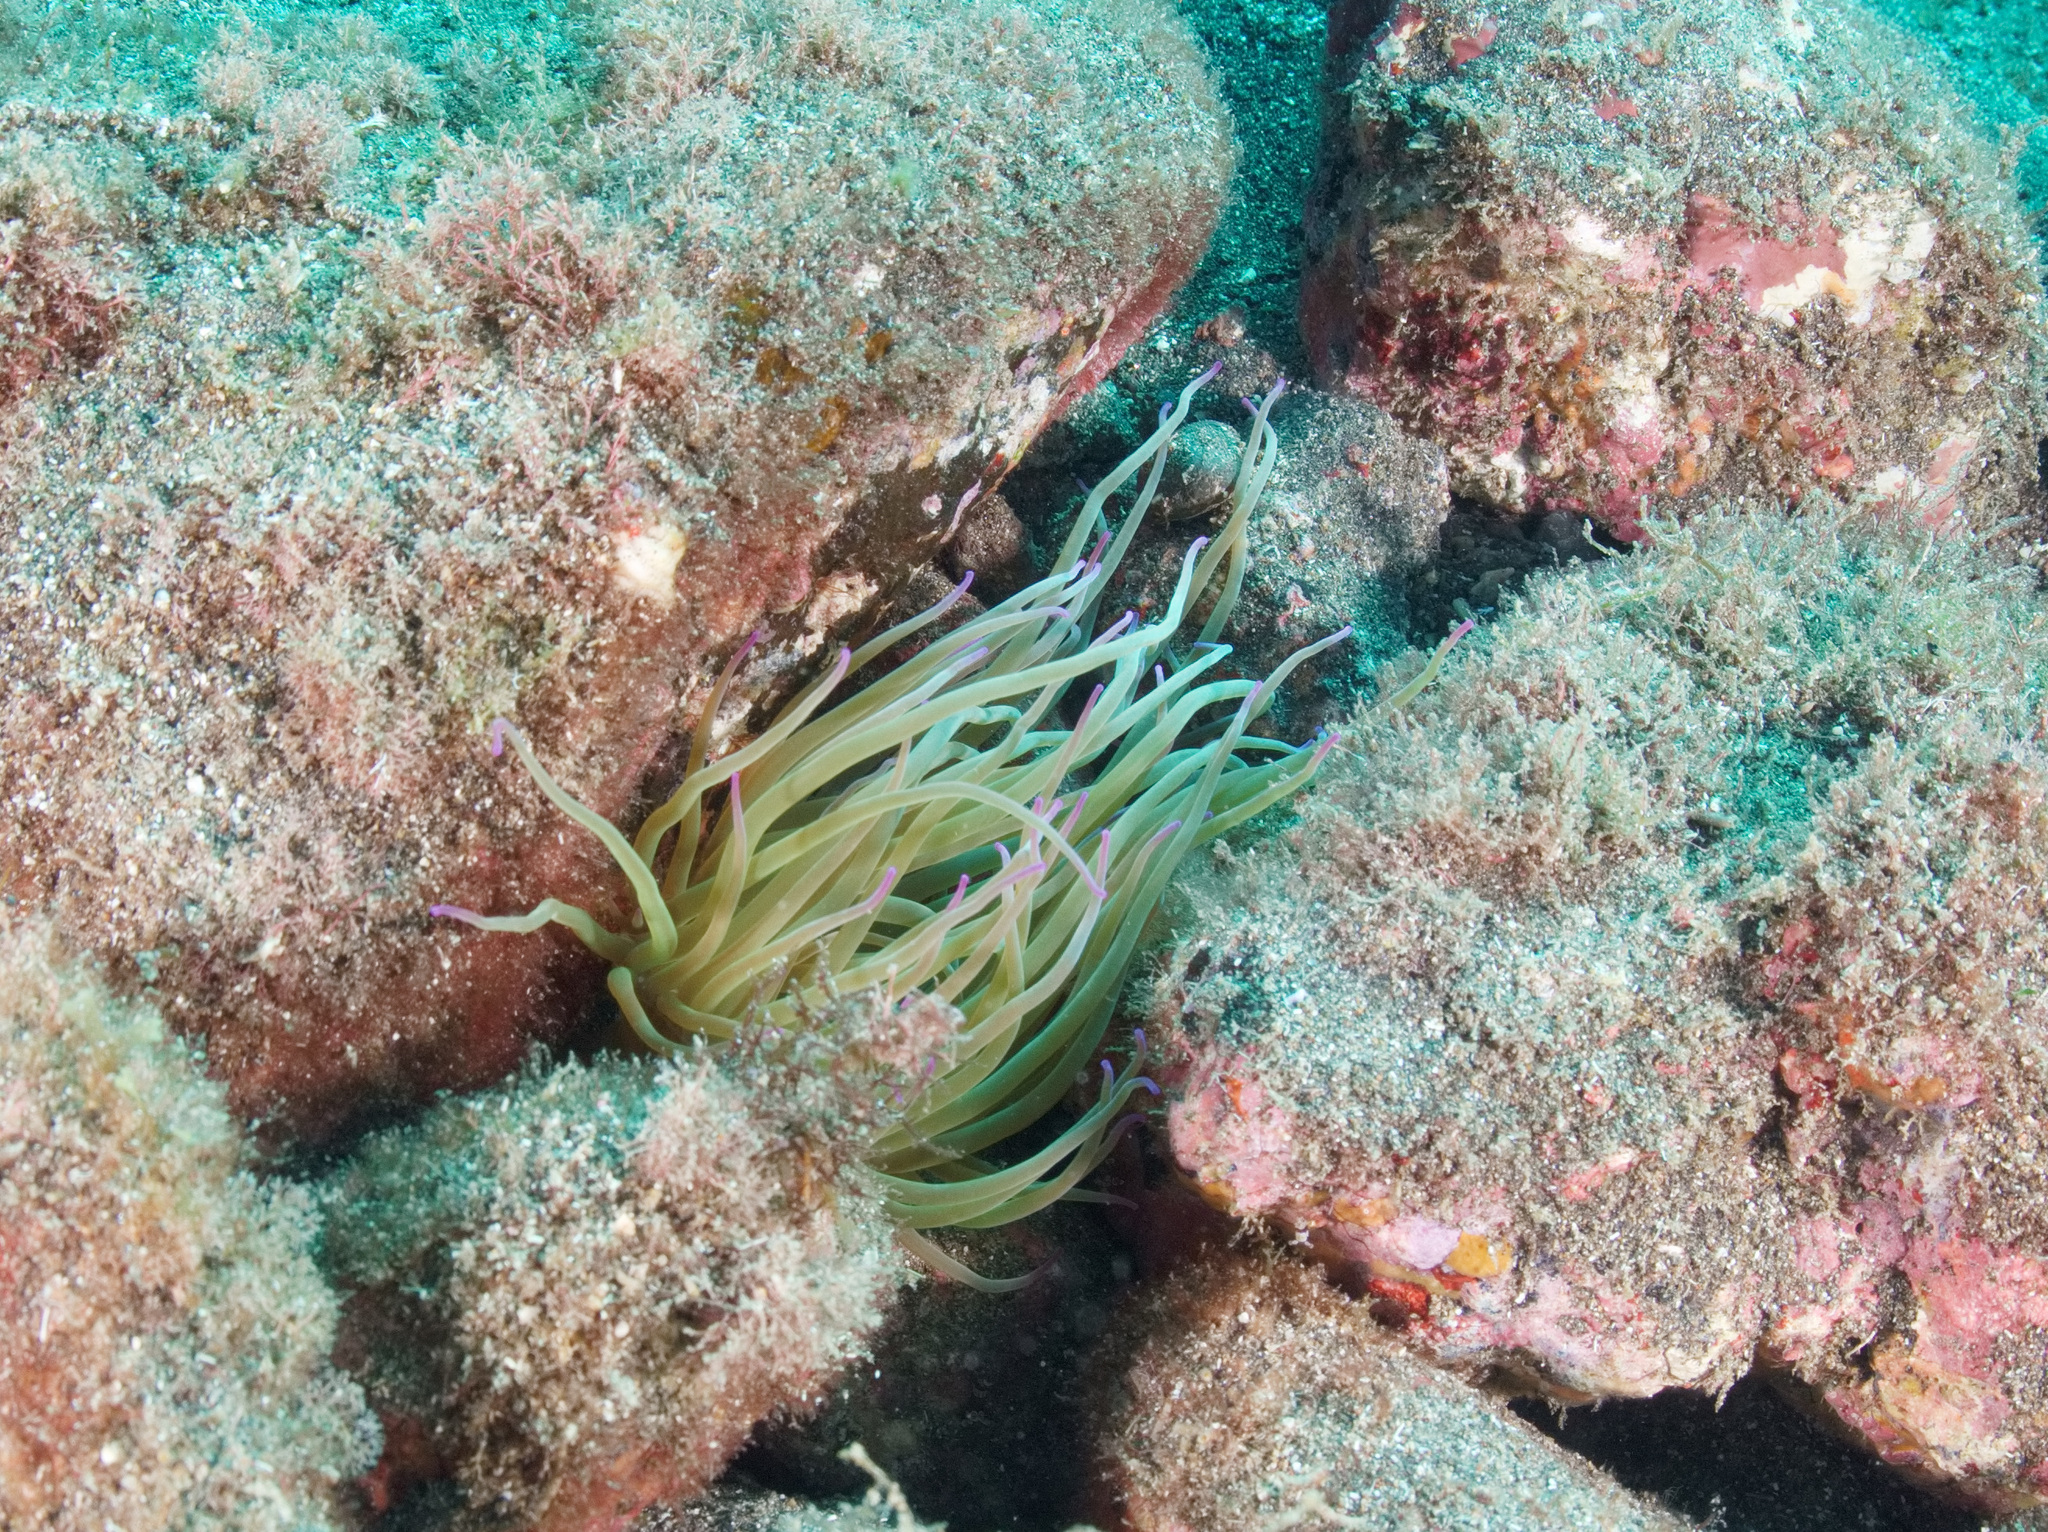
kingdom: Animalia
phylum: Cnidaria
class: Anthozoa
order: Actiniaria
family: Actiniidae
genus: Anemonia
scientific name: Anemonia viridis
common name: Snakelocks anemone
